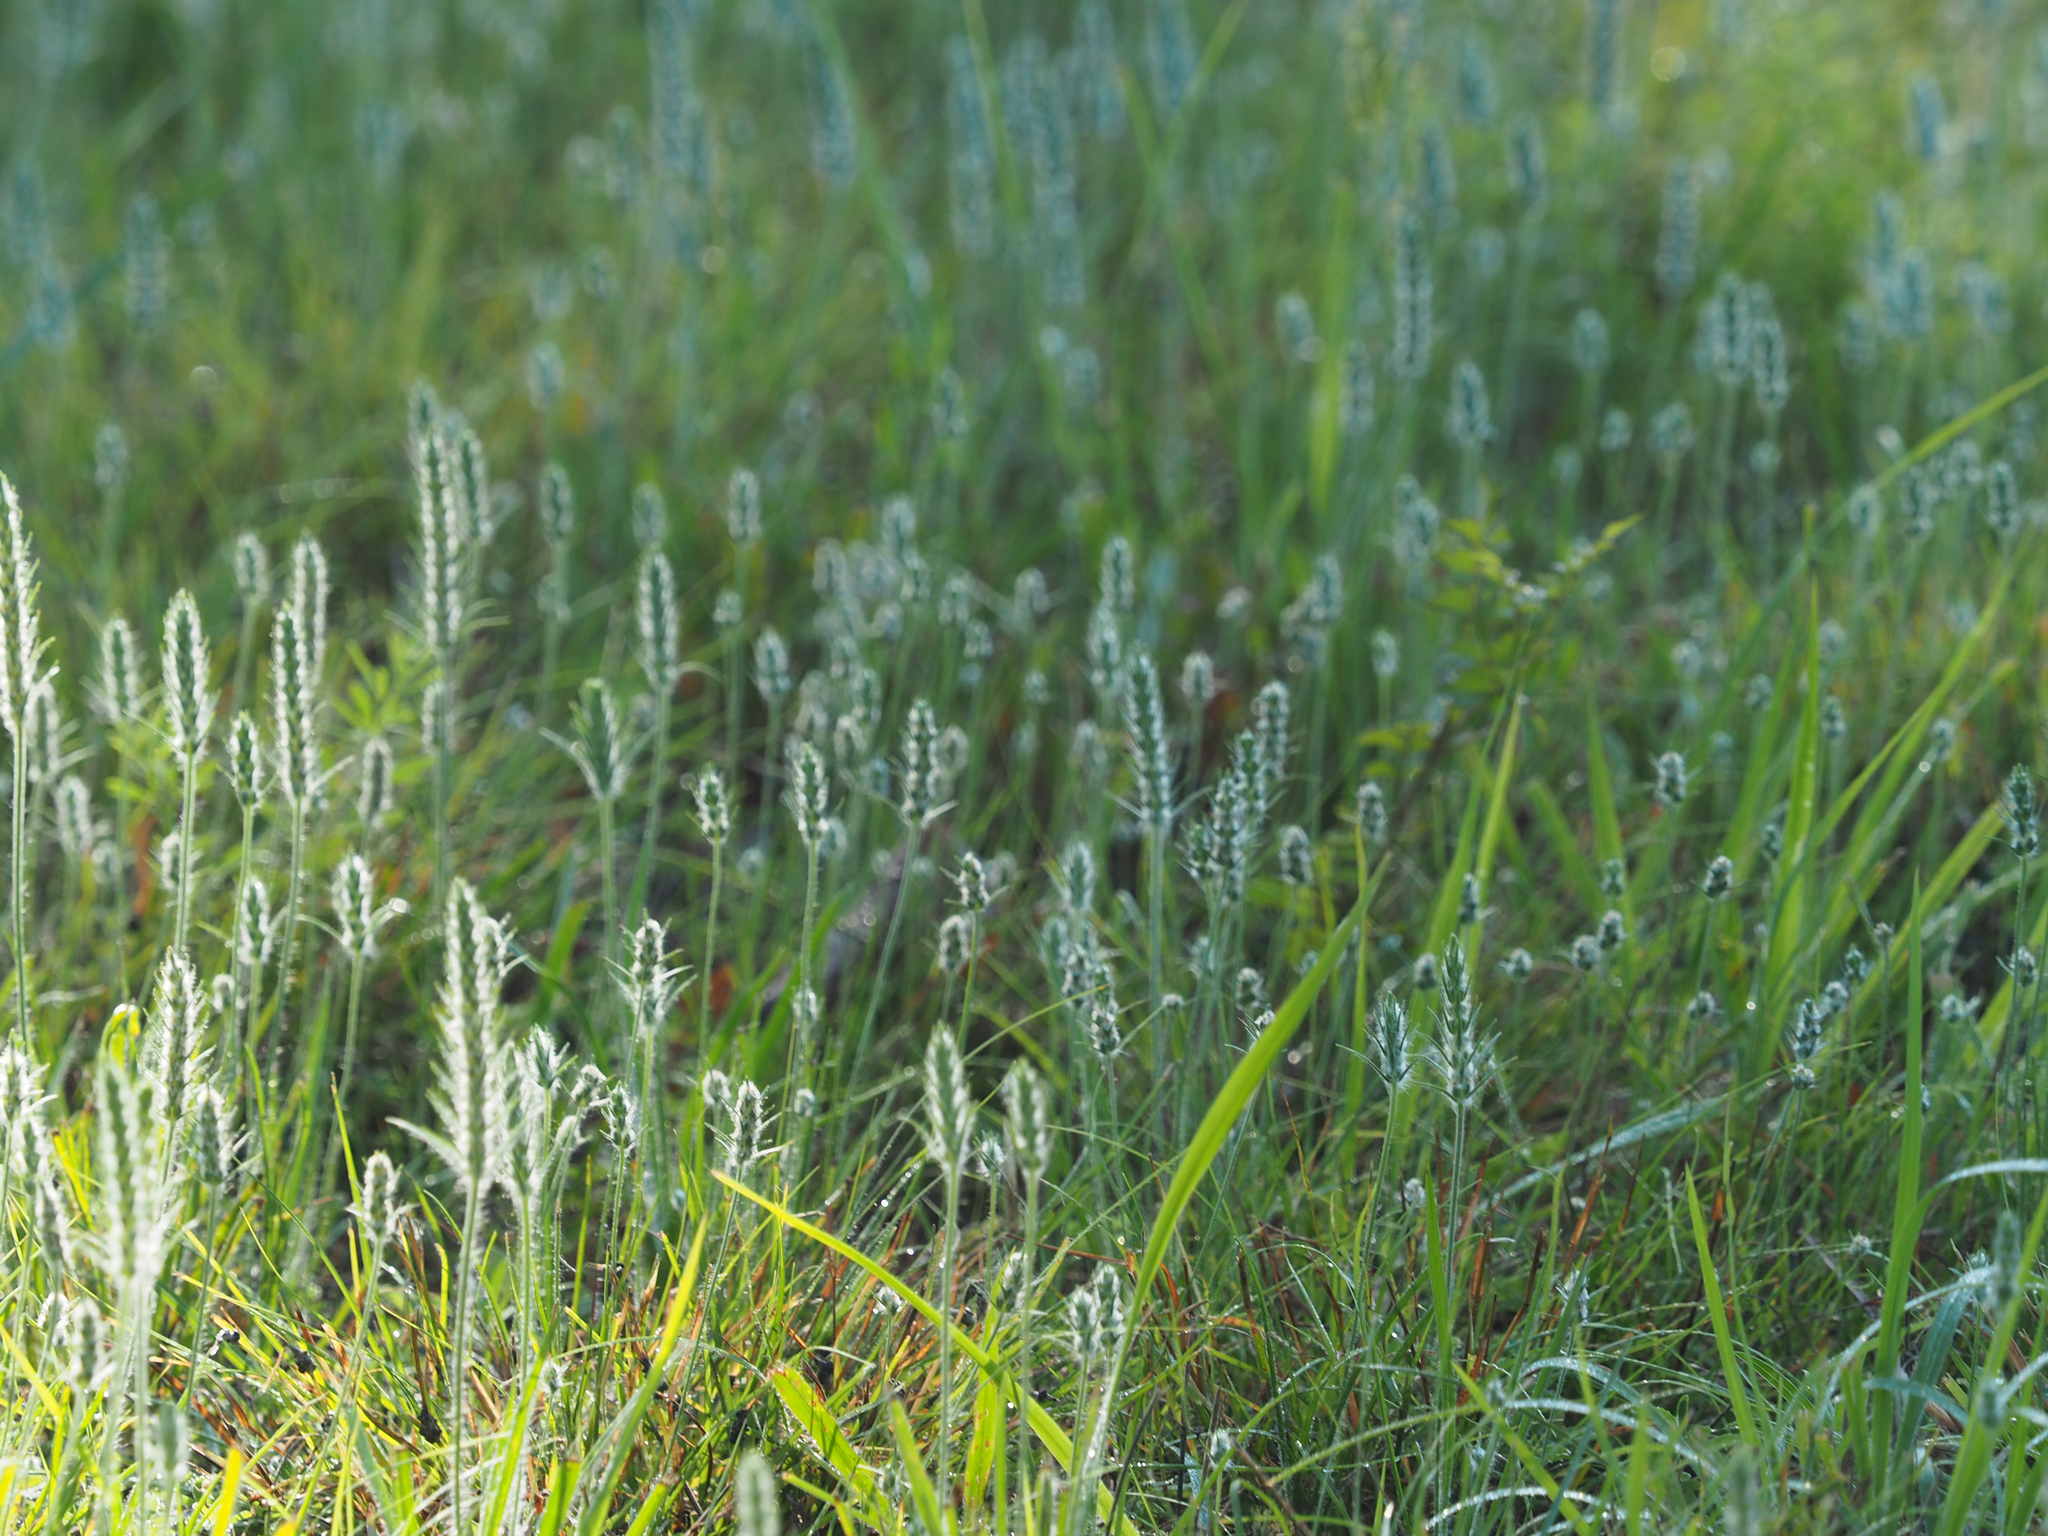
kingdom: Plantae
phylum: Tracheophyta
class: Magnoliopsida
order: Lamiales
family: Plantaginaceae
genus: Plantago
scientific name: Plantago aristata
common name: Bracted plantain
